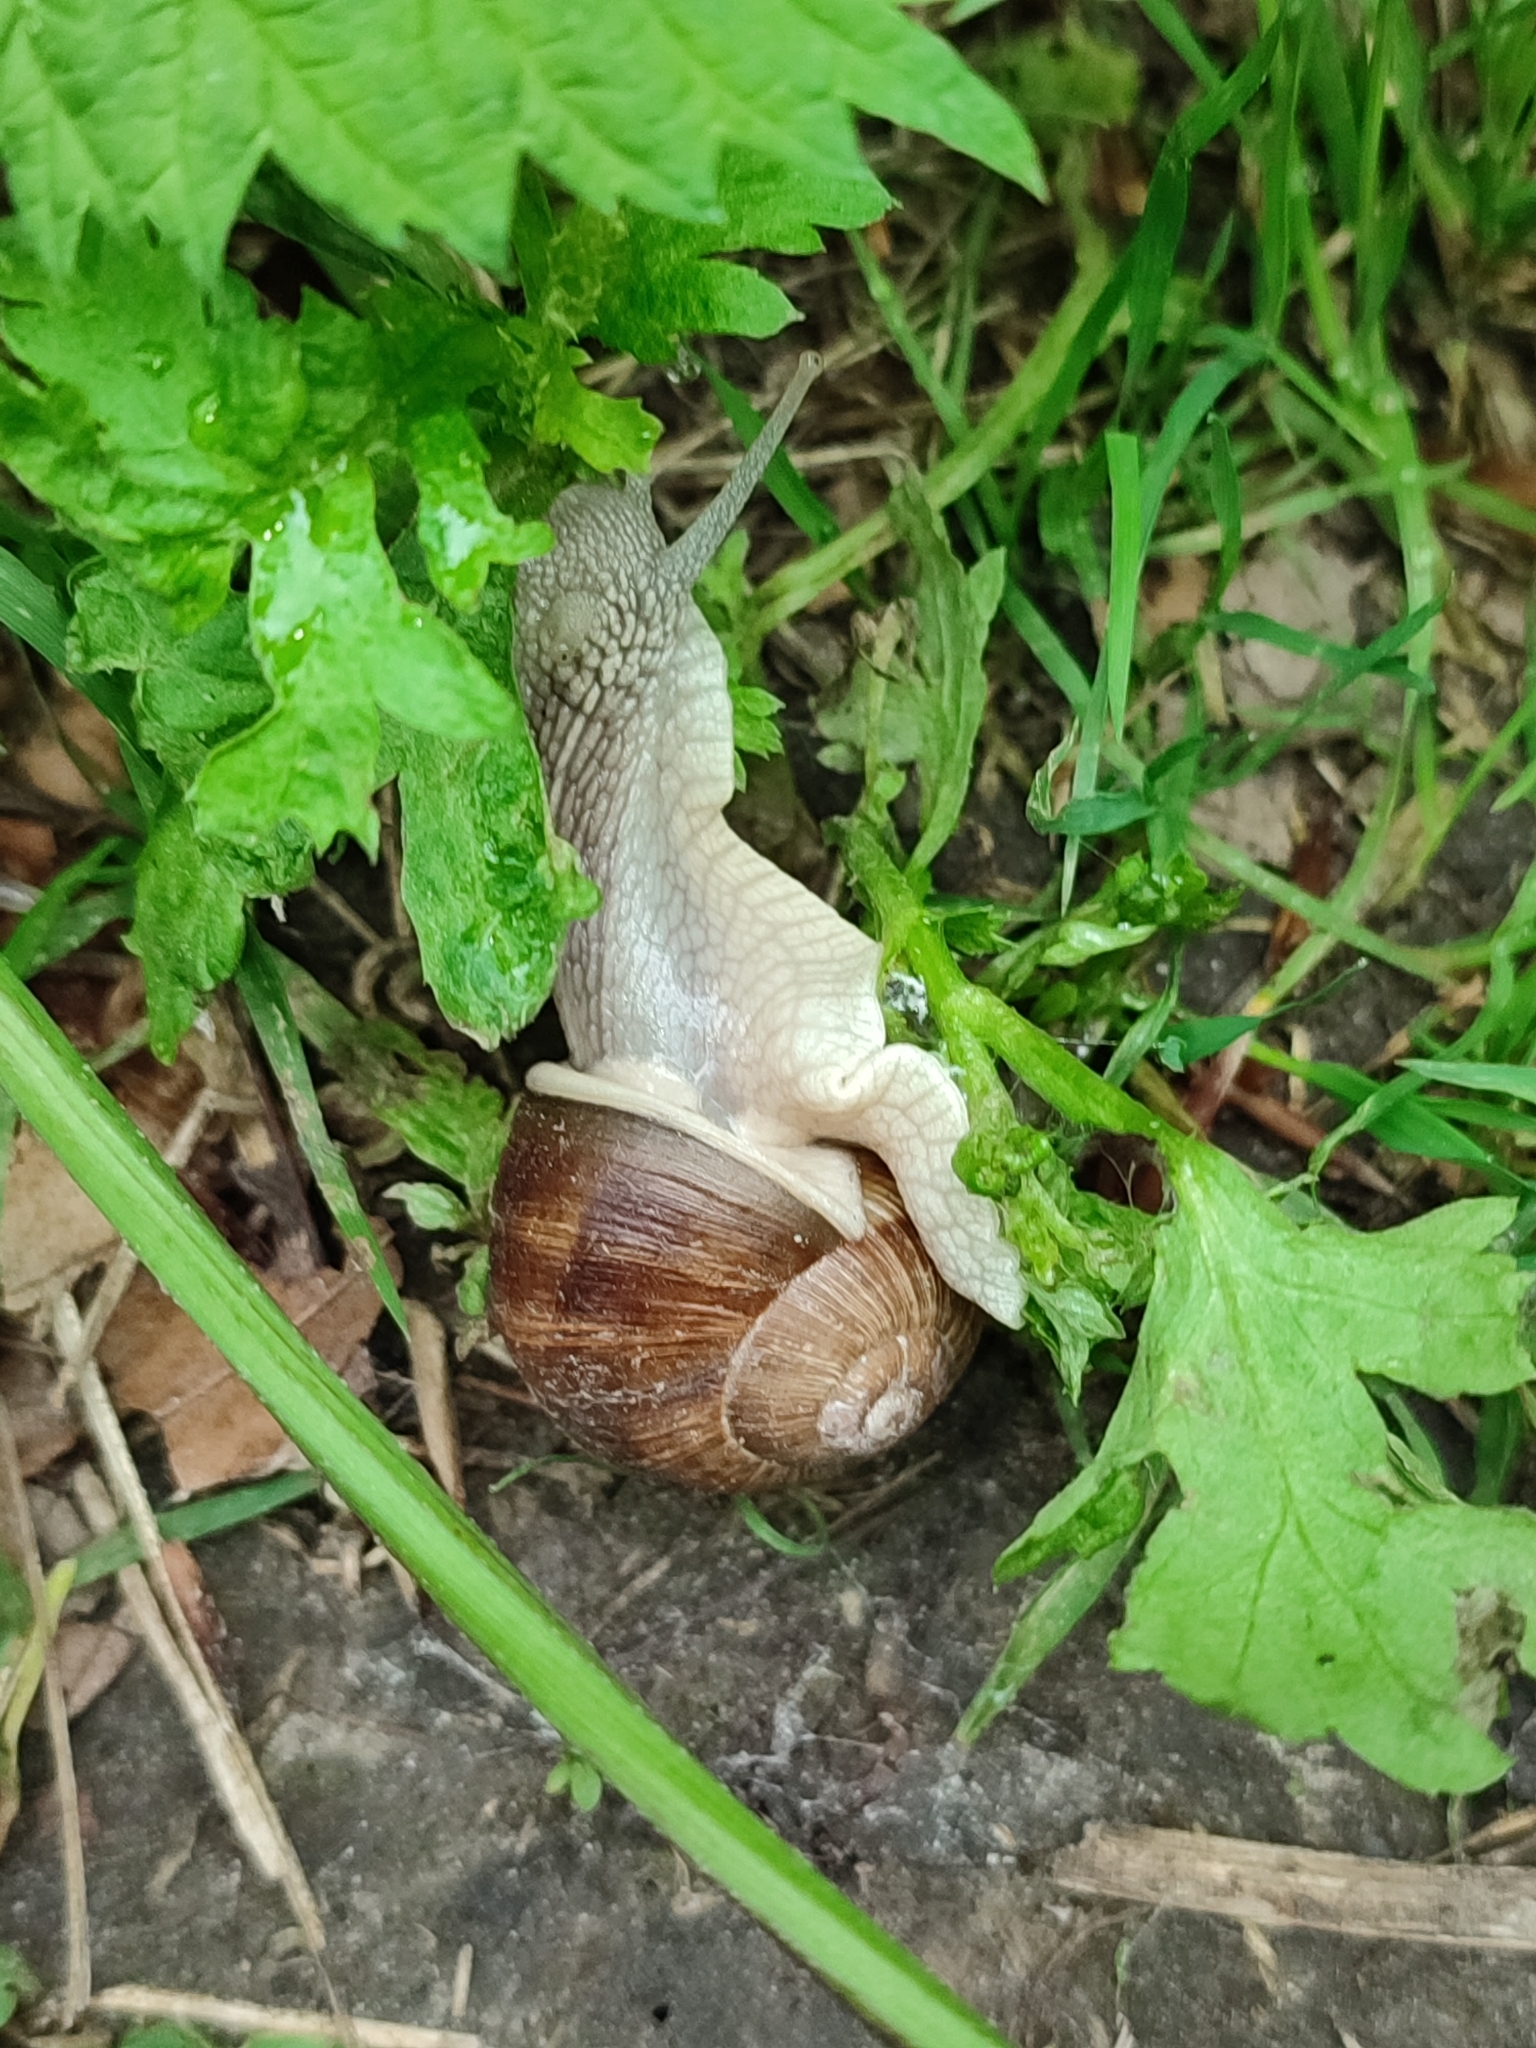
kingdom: Animalia
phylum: Mollusca
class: Gastropoda
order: Stylommatophora
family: Helicidae
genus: Helix
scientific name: Helix pomatia
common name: Roman snail
